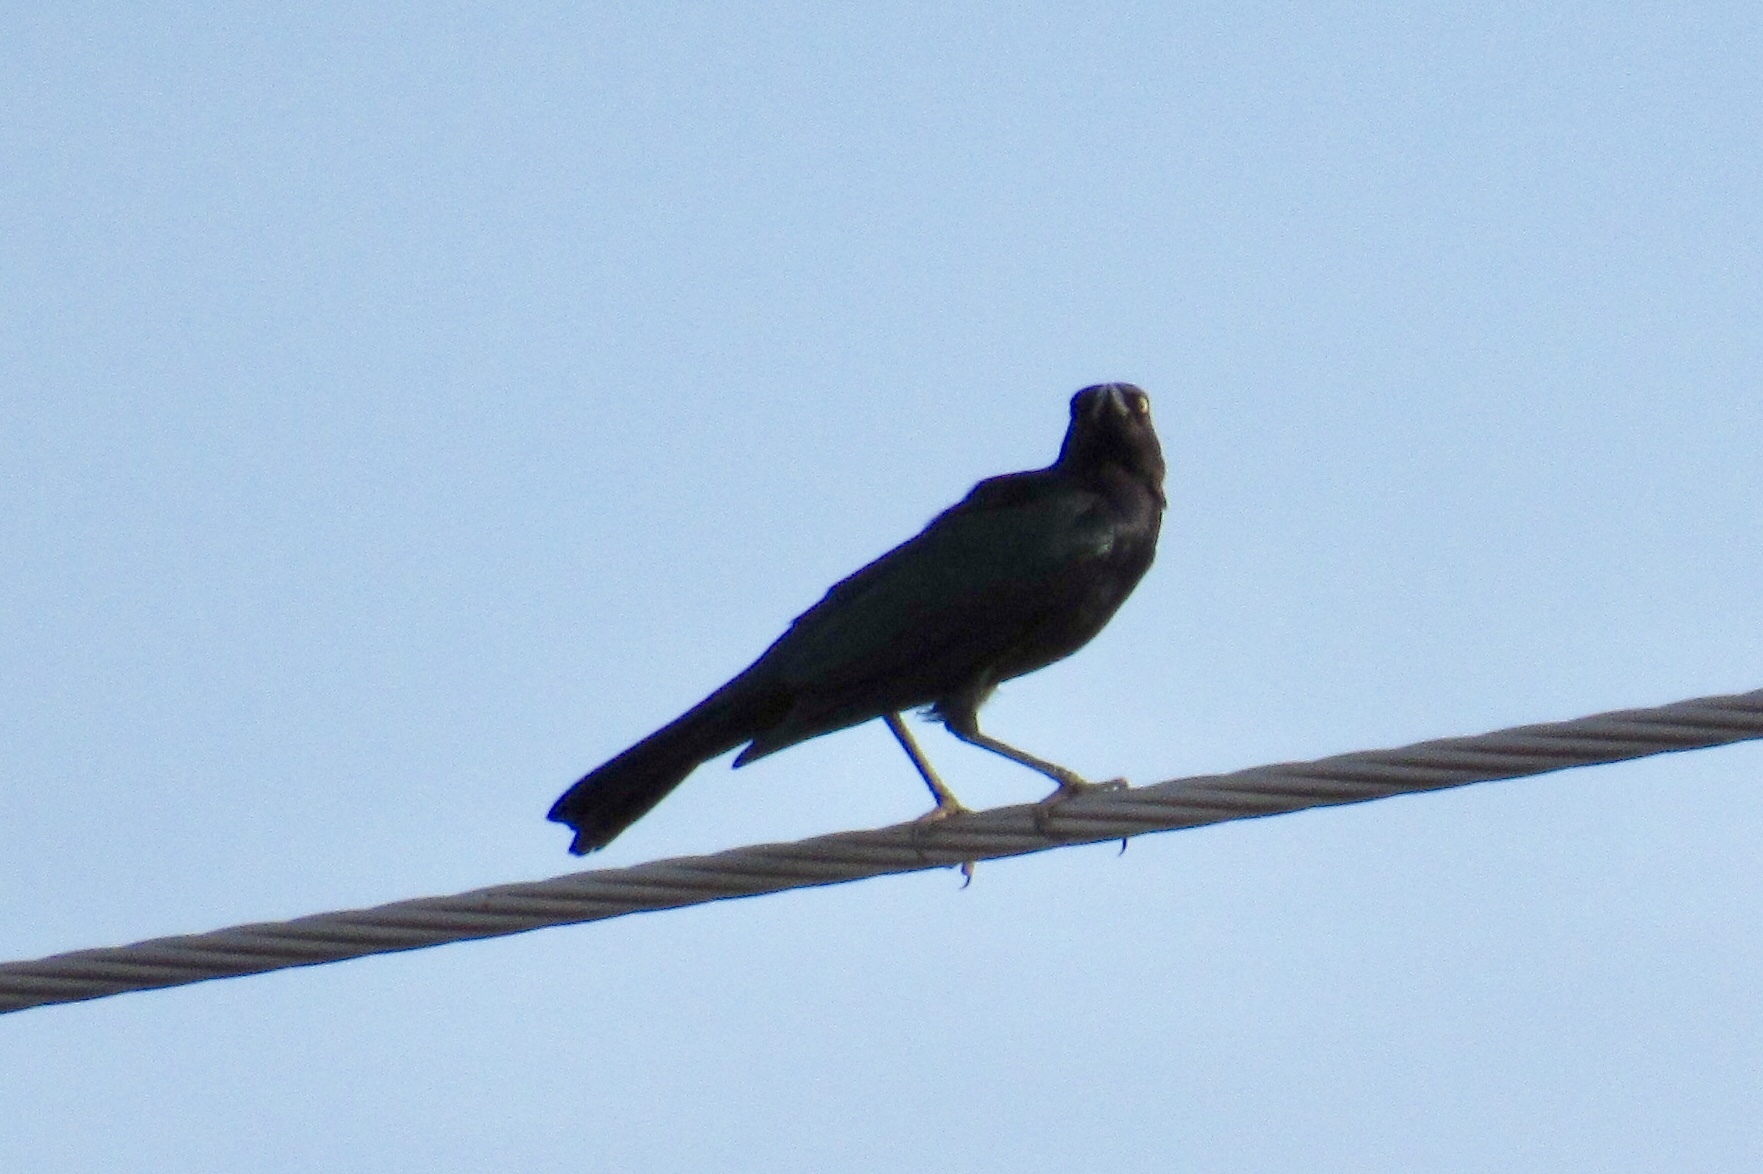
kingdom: Animalia
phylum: Chordata
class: Aves
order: Passeriformes
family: Icteridae
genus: Euphagus
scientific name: Euphagus cyanocephalus
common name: Brewer's blackbird
